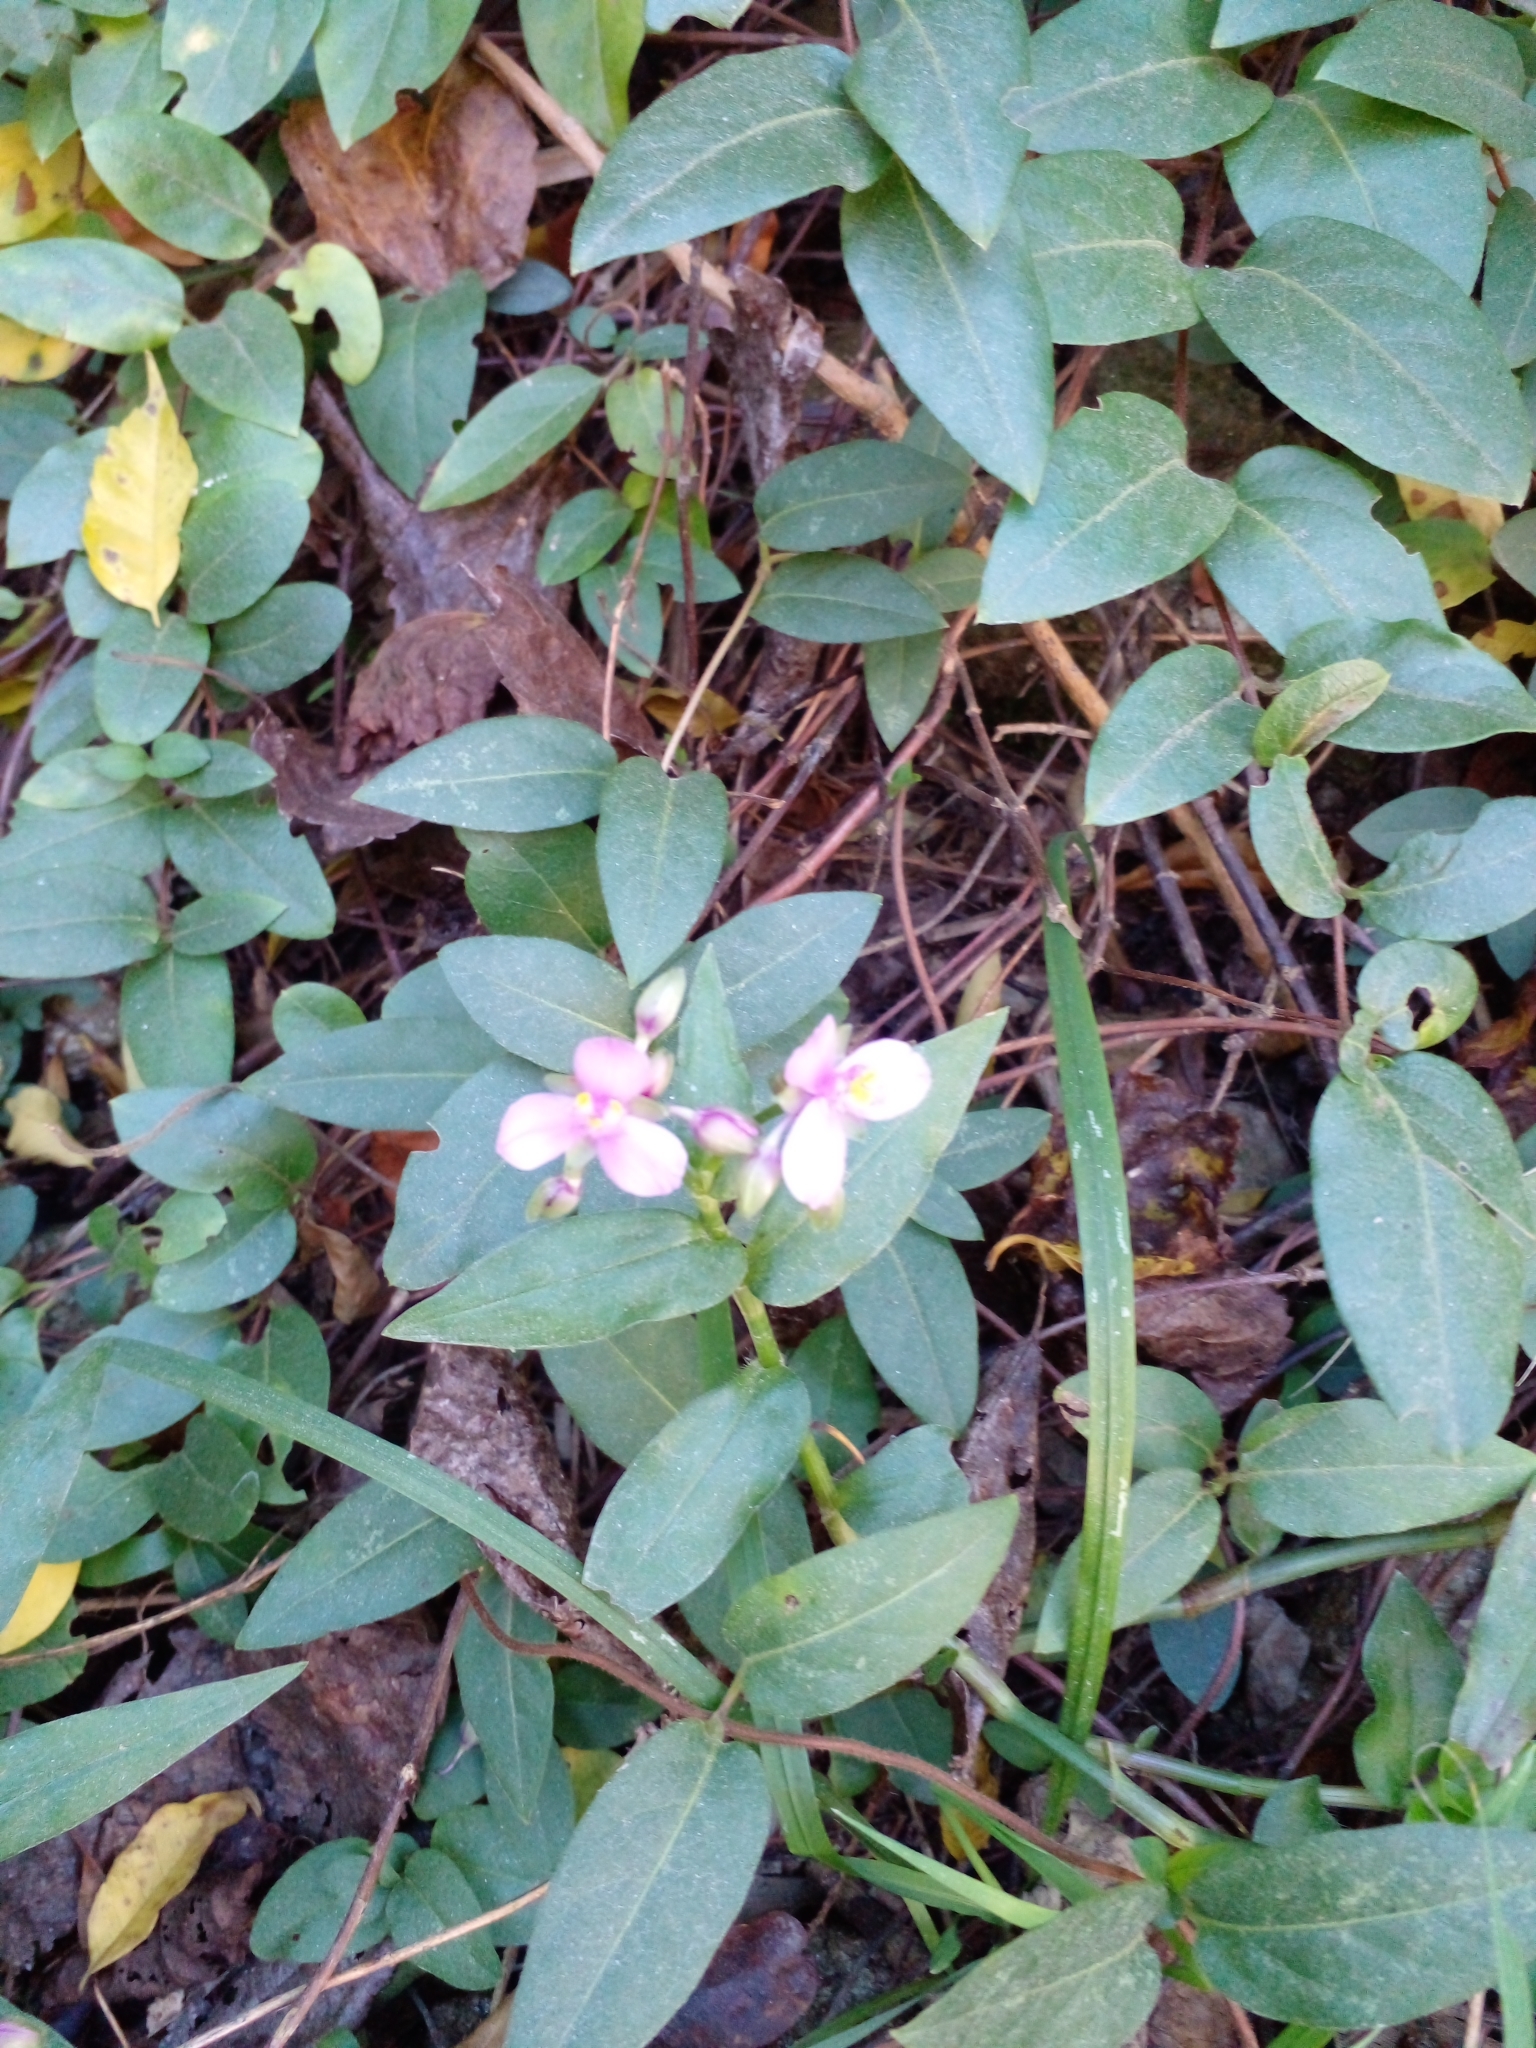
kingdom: Plantae
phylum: Tracheophyta
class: Liliopsida
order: Commelinales
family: Commelinaceae
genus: Callisia
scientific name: Callisia diuretica
